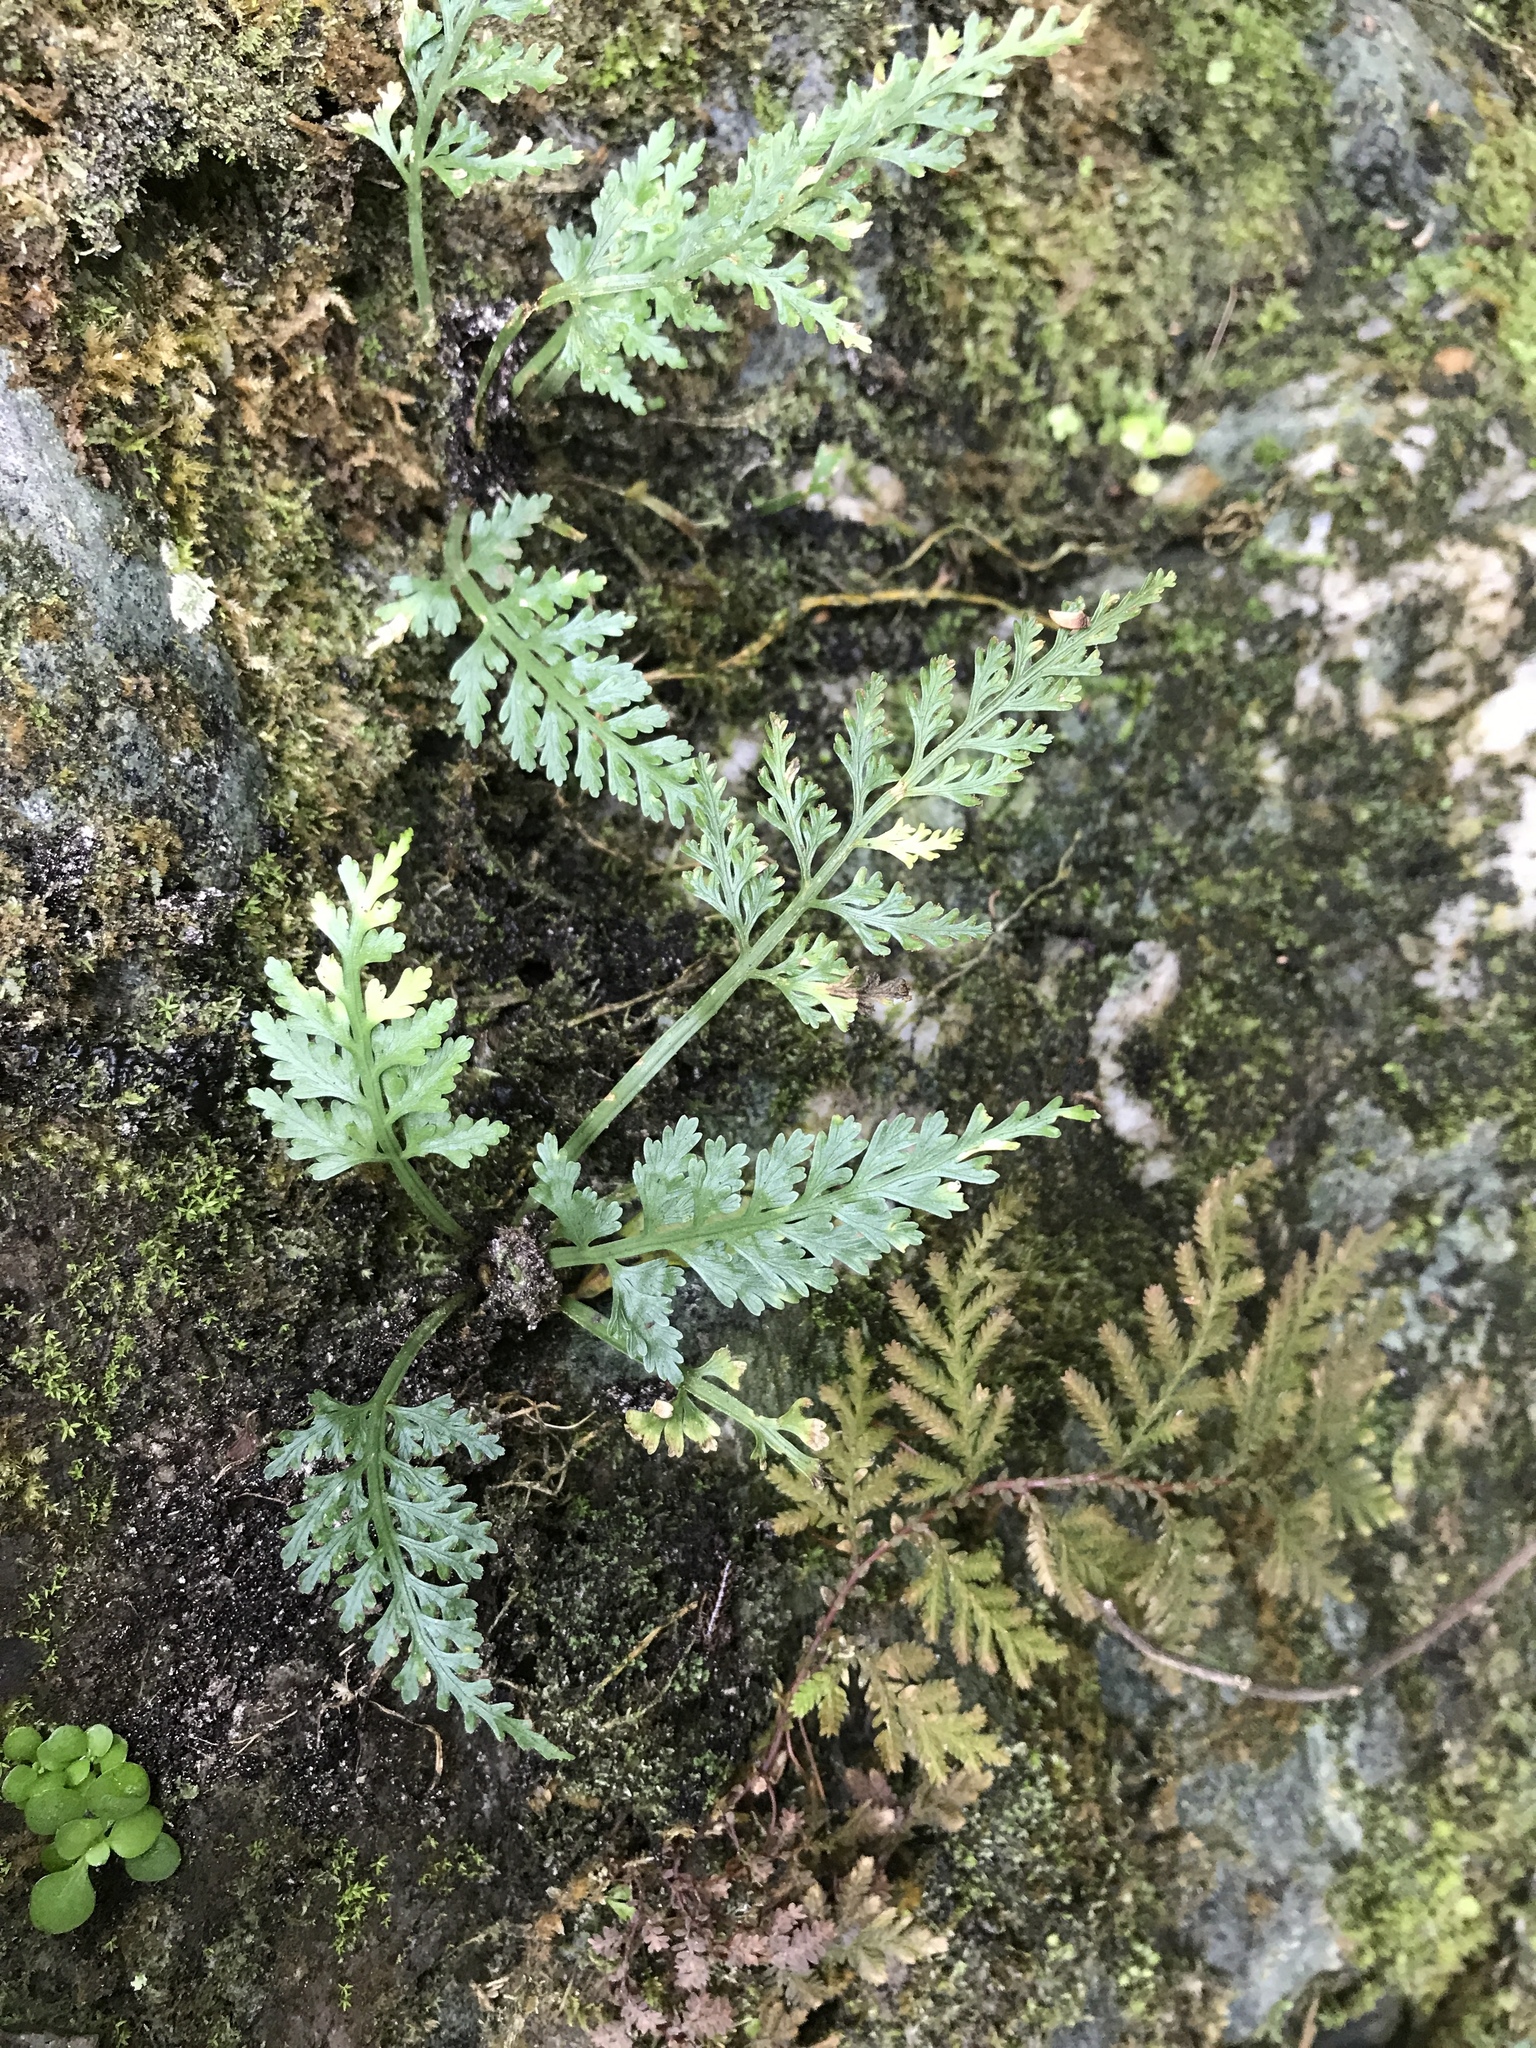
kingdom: Plantae
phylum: Tracheophyta
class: Polypodiopsida
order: Polypodiales
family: Aspleniaceae
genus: Asplenium
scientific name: Asplenium ritoense
